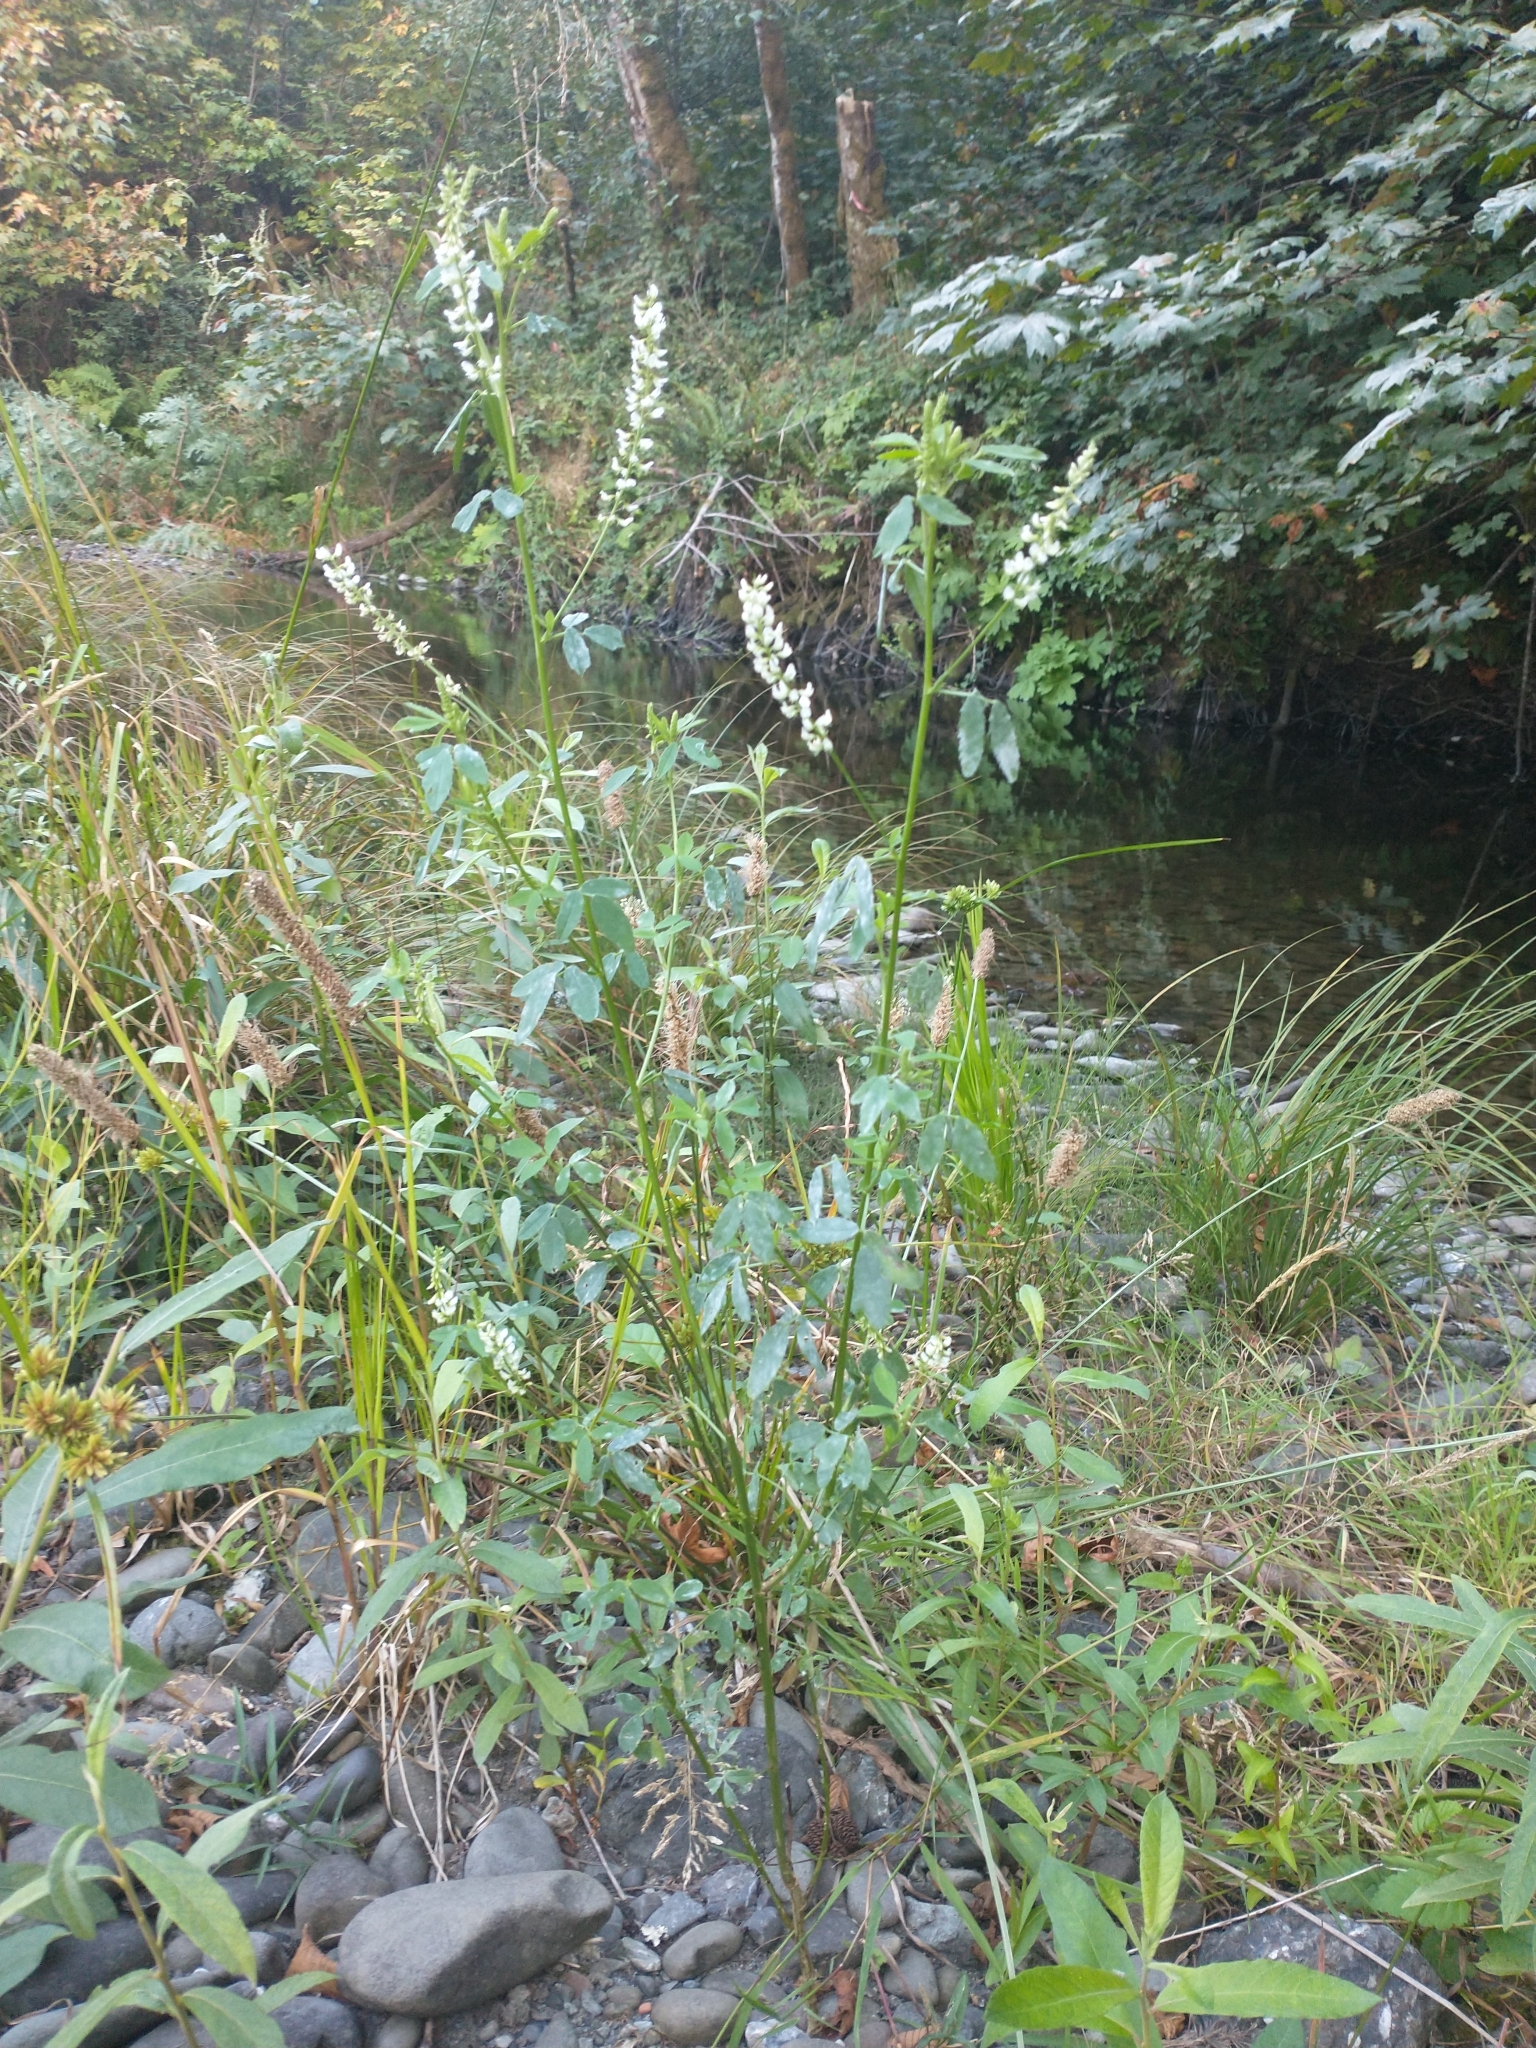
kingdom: Plantae
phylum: Tracheophyta
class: Magnoliopsida
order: Fabales
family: Fabaceae
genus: Melilotus
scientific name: Melilotus albus
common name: White melilot
